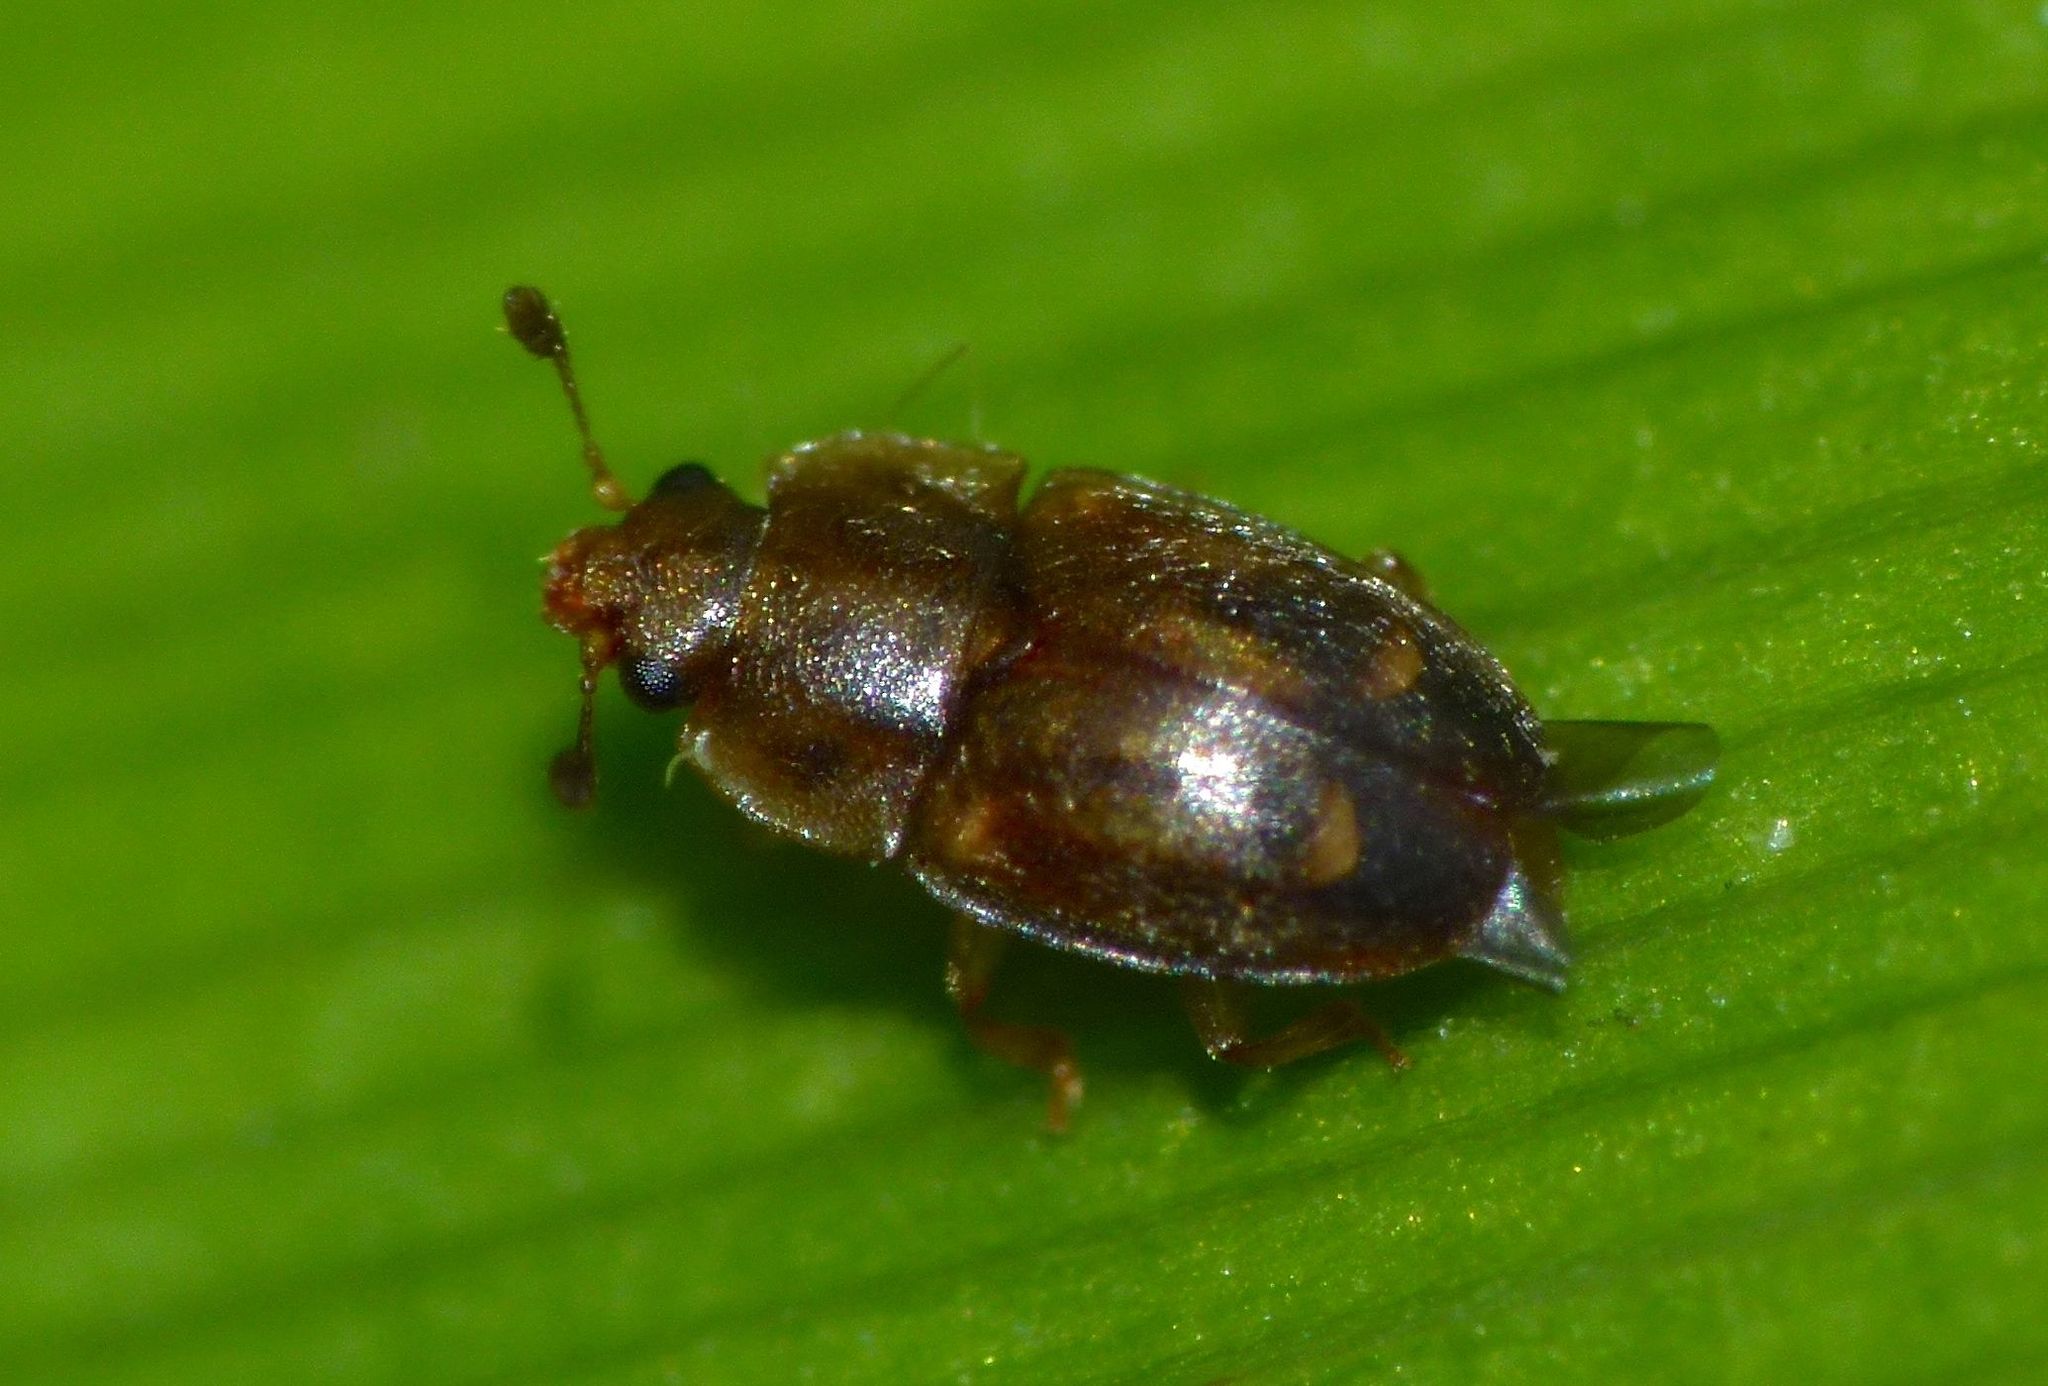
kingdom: Animalia
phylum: Arthropoda
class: Insecta
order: Coleoptera
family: Nitidulidae
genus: Epuraea
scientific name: Epuraea imperialis
